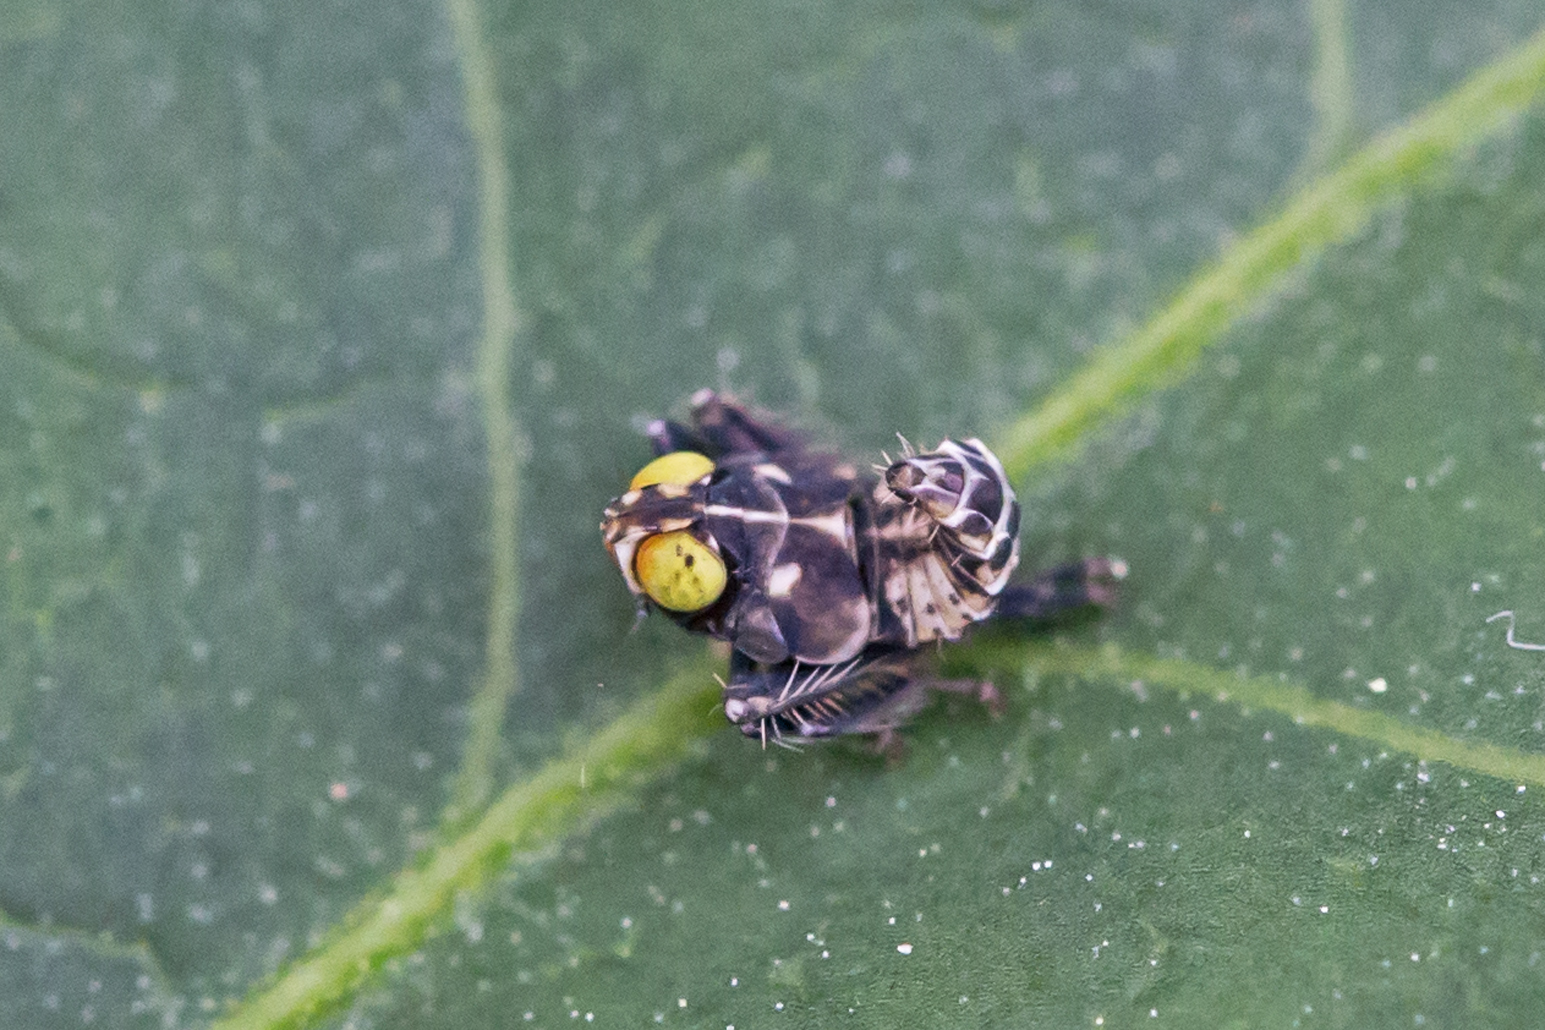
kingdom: Animalia
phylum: Arthropoda
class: Insecta
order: Hemiptera
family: Cicadellidae
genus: Jikradia
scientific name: Jikradia olitoria
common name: Coppery leafhopper
